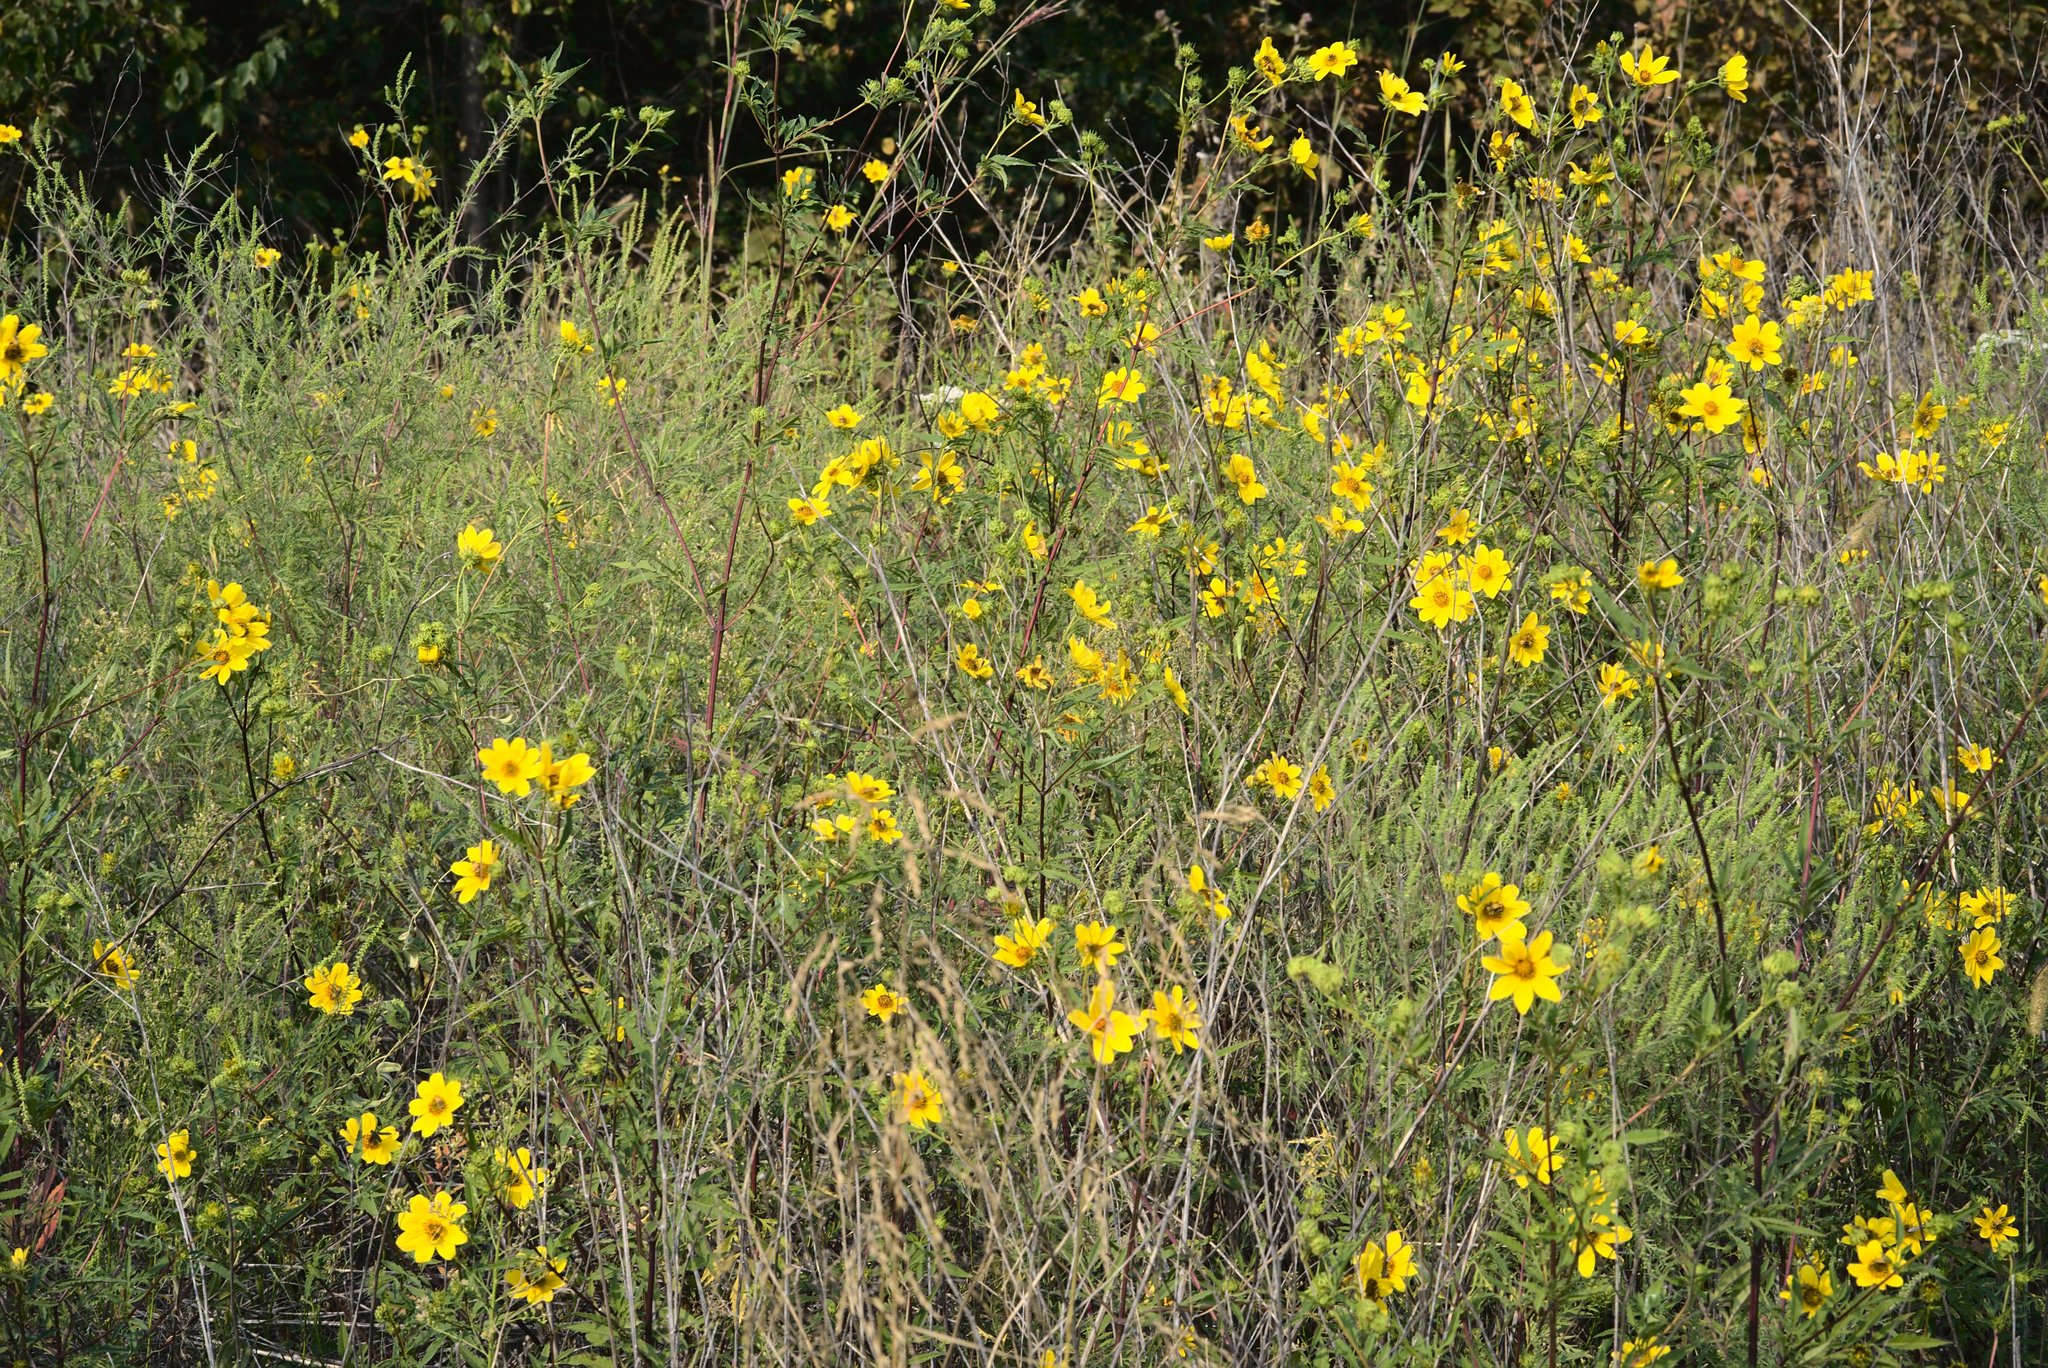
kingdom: Plantae
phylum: Tracheophyta
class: Magnoliopsida
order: Asterales
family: Asteraceae
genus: Bidens
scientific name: Bidens polylepis
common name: Awnless beggarticks
